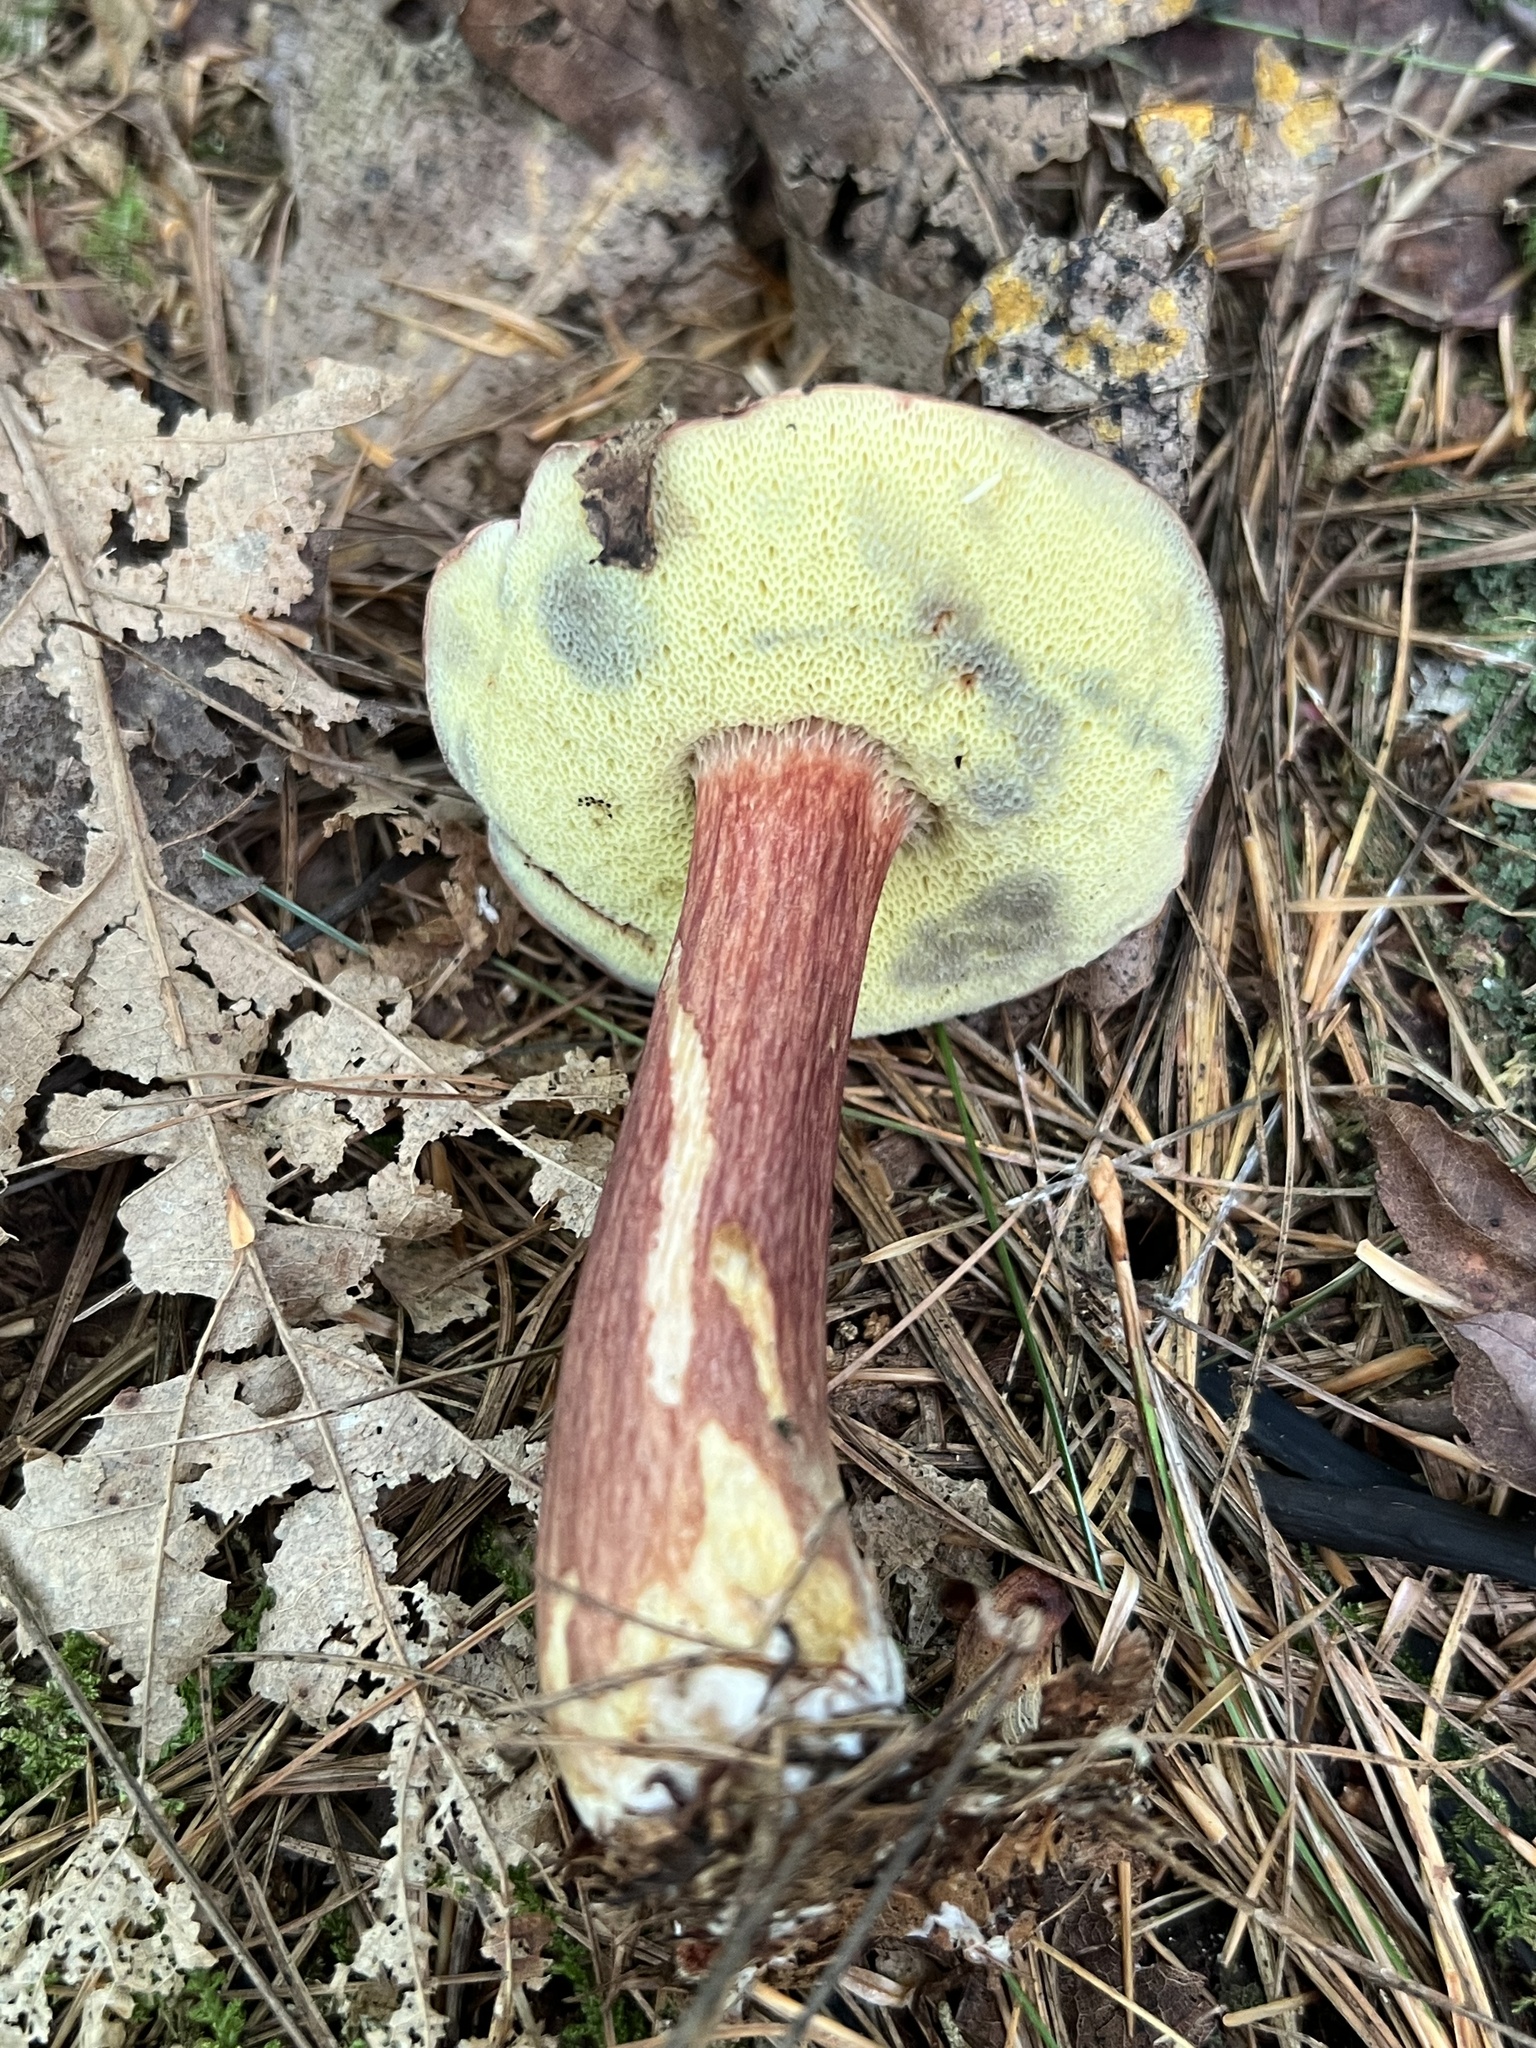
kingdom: Fungi
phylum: Basidiomycota
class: Agaricomycetes
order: Boletales
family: Boletaceae
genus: Imleria
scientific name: Imleria badia
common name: Bay bolete
